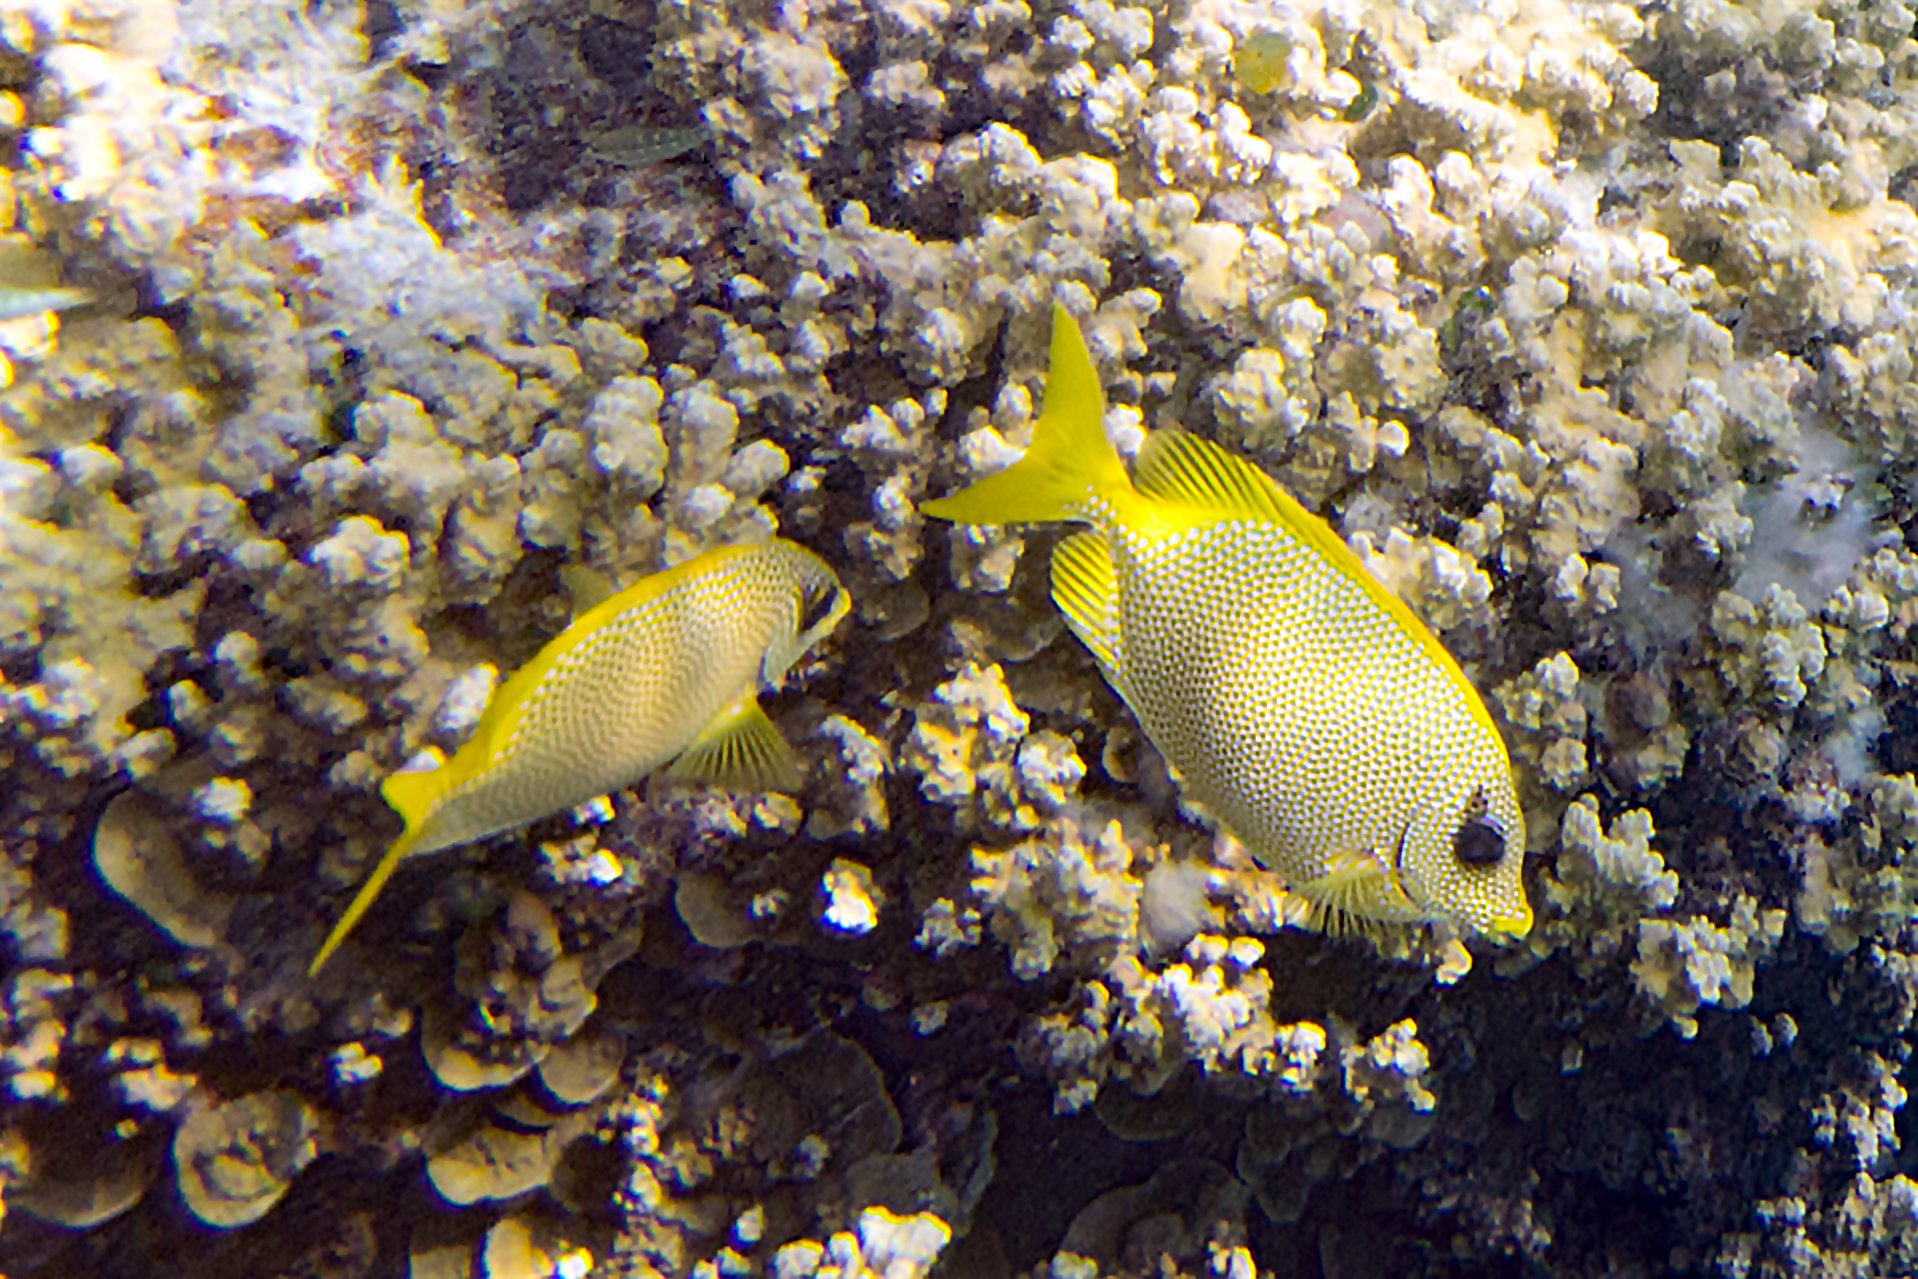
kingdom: Animalia
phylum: Chordata
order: Perciformes
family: Siganidae
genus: Siganus
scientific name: Siganus corallinus
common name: Coral rabbitfish
